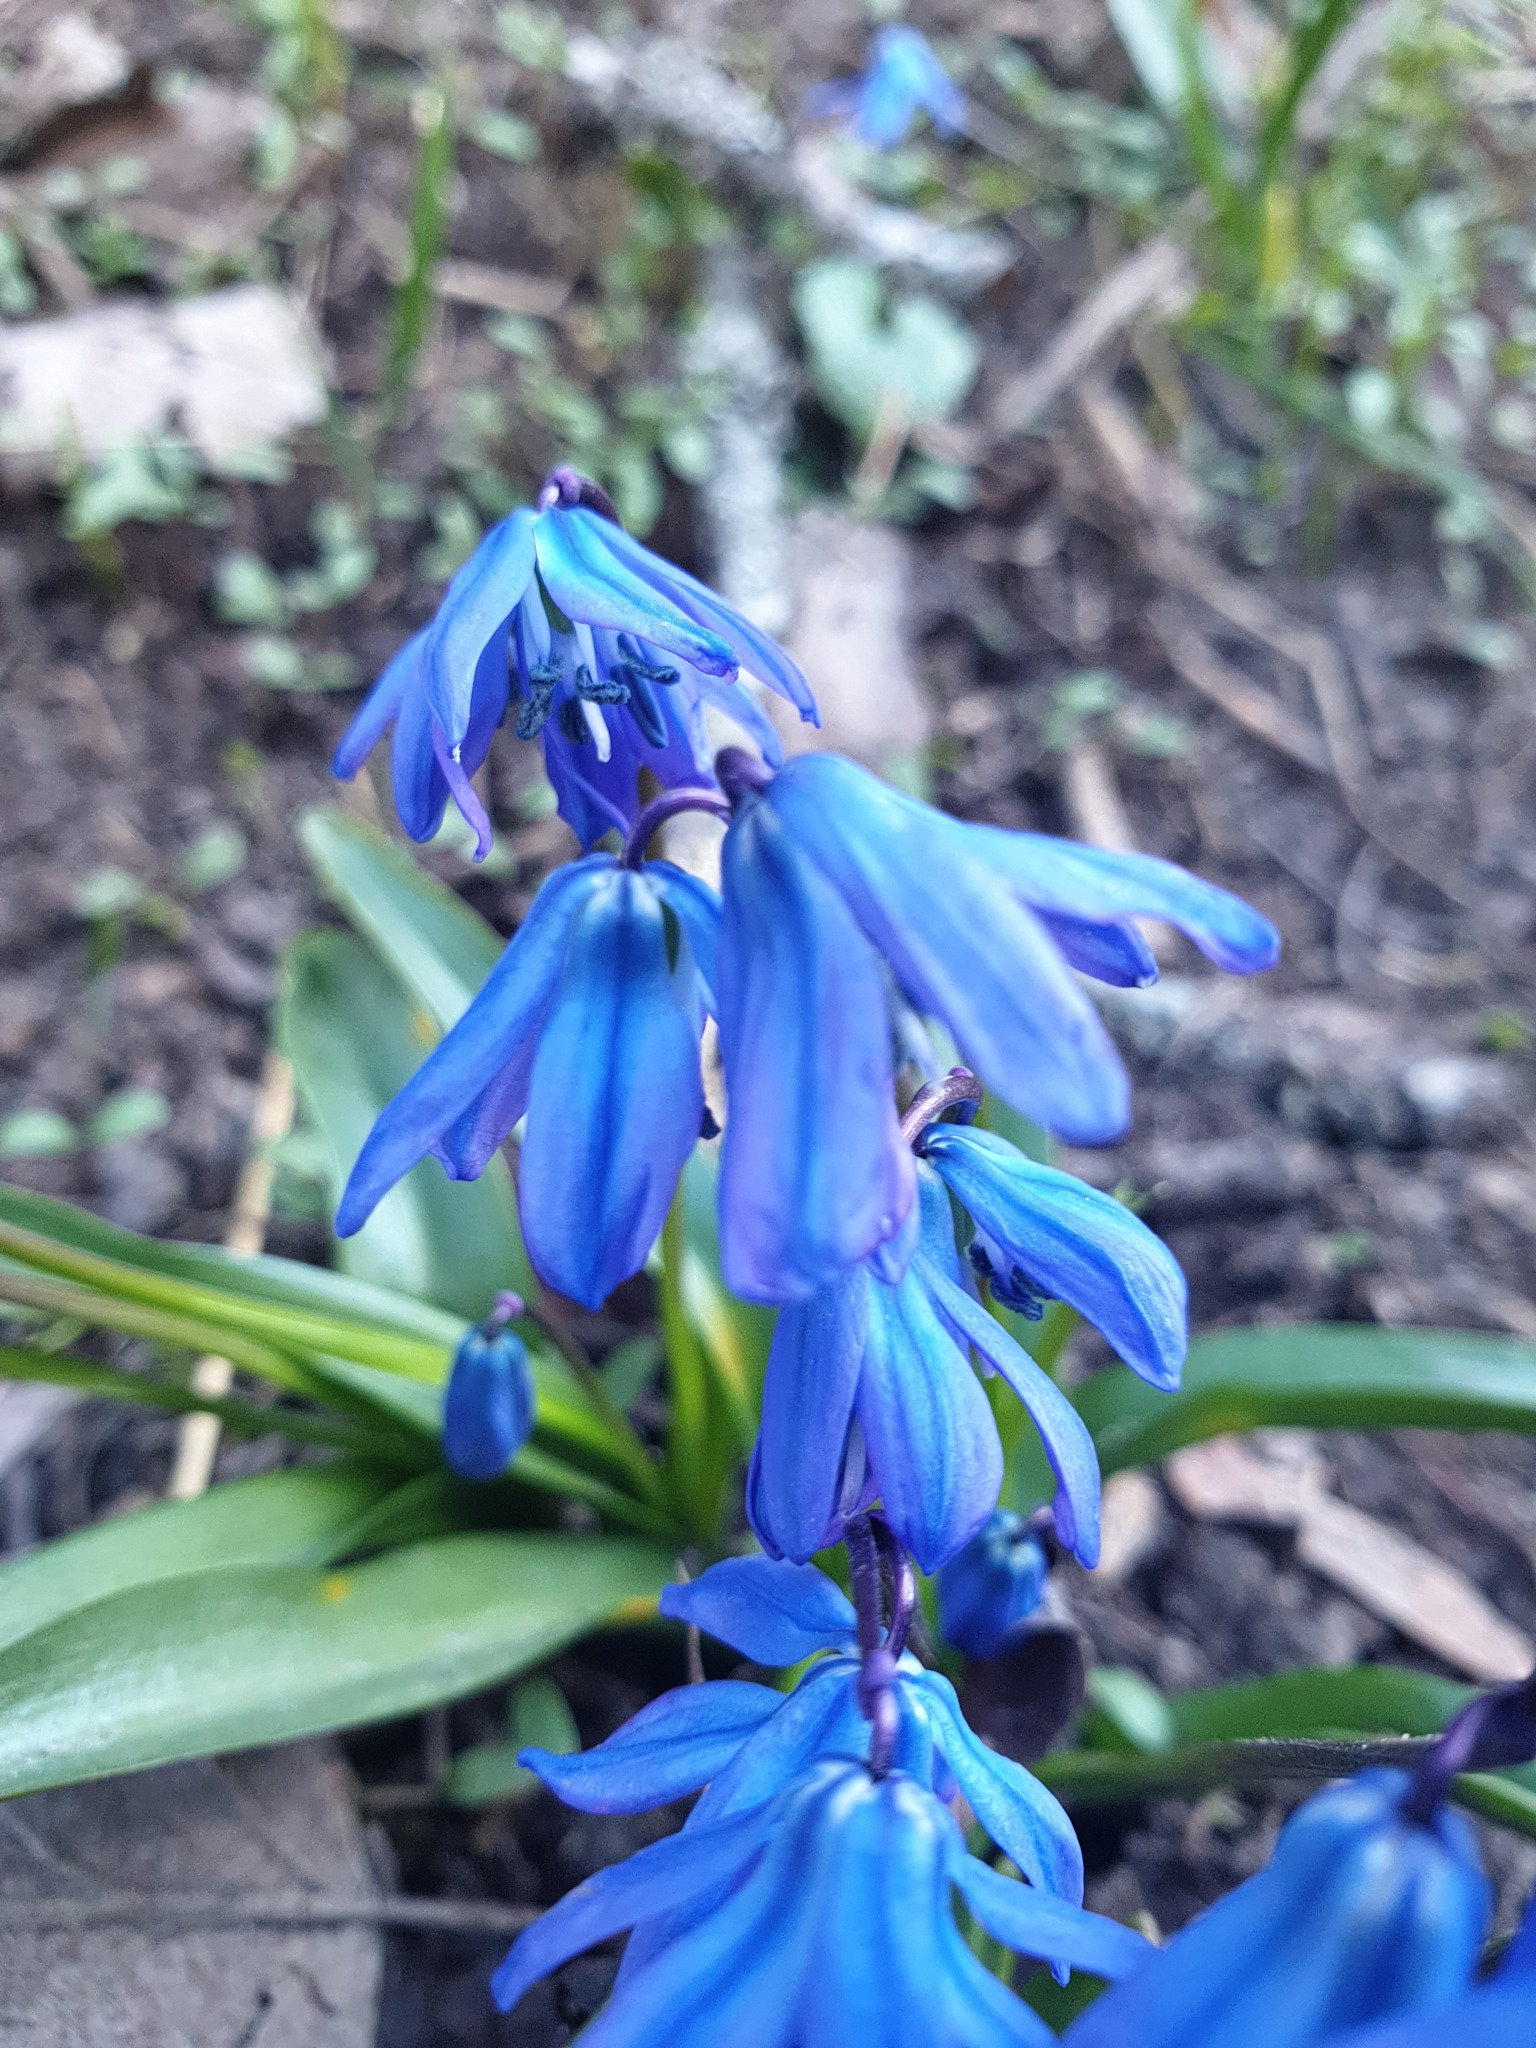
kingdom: Plantae
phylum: Tracheophyta
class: Liliopsida
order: Asparagales
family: Asparagaceae
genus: Scilla
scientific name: Scilla siberica
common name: Siberian squill
